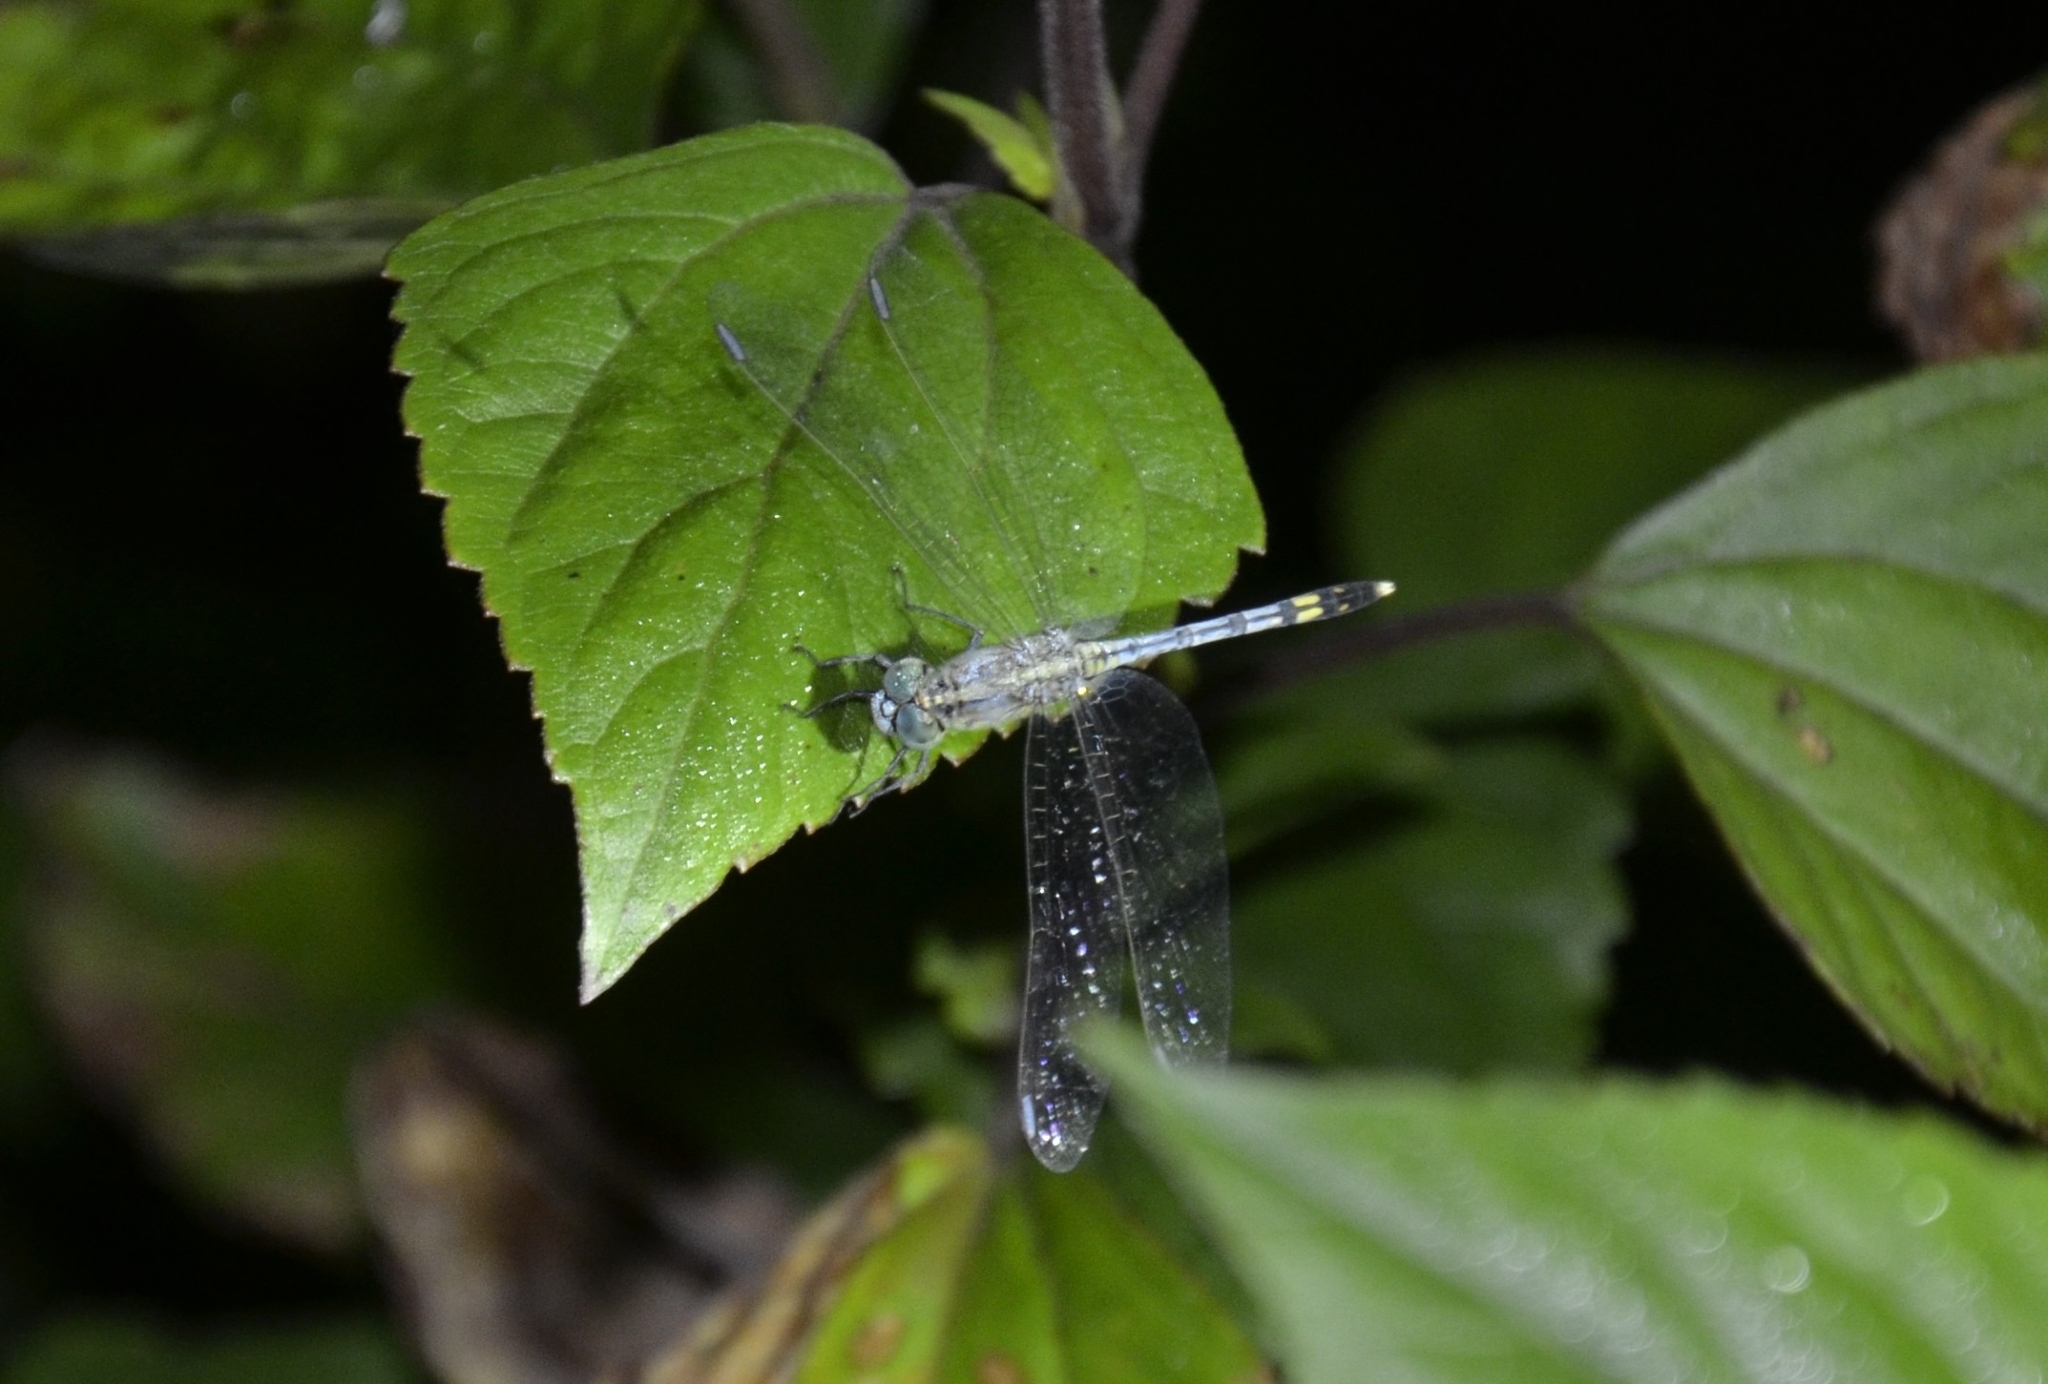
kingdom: Animalia
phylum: Arthropoda
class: Insecta
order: Odonata
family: Libellulidae
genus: Diplacodes
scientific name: Diplacodes trivialis
